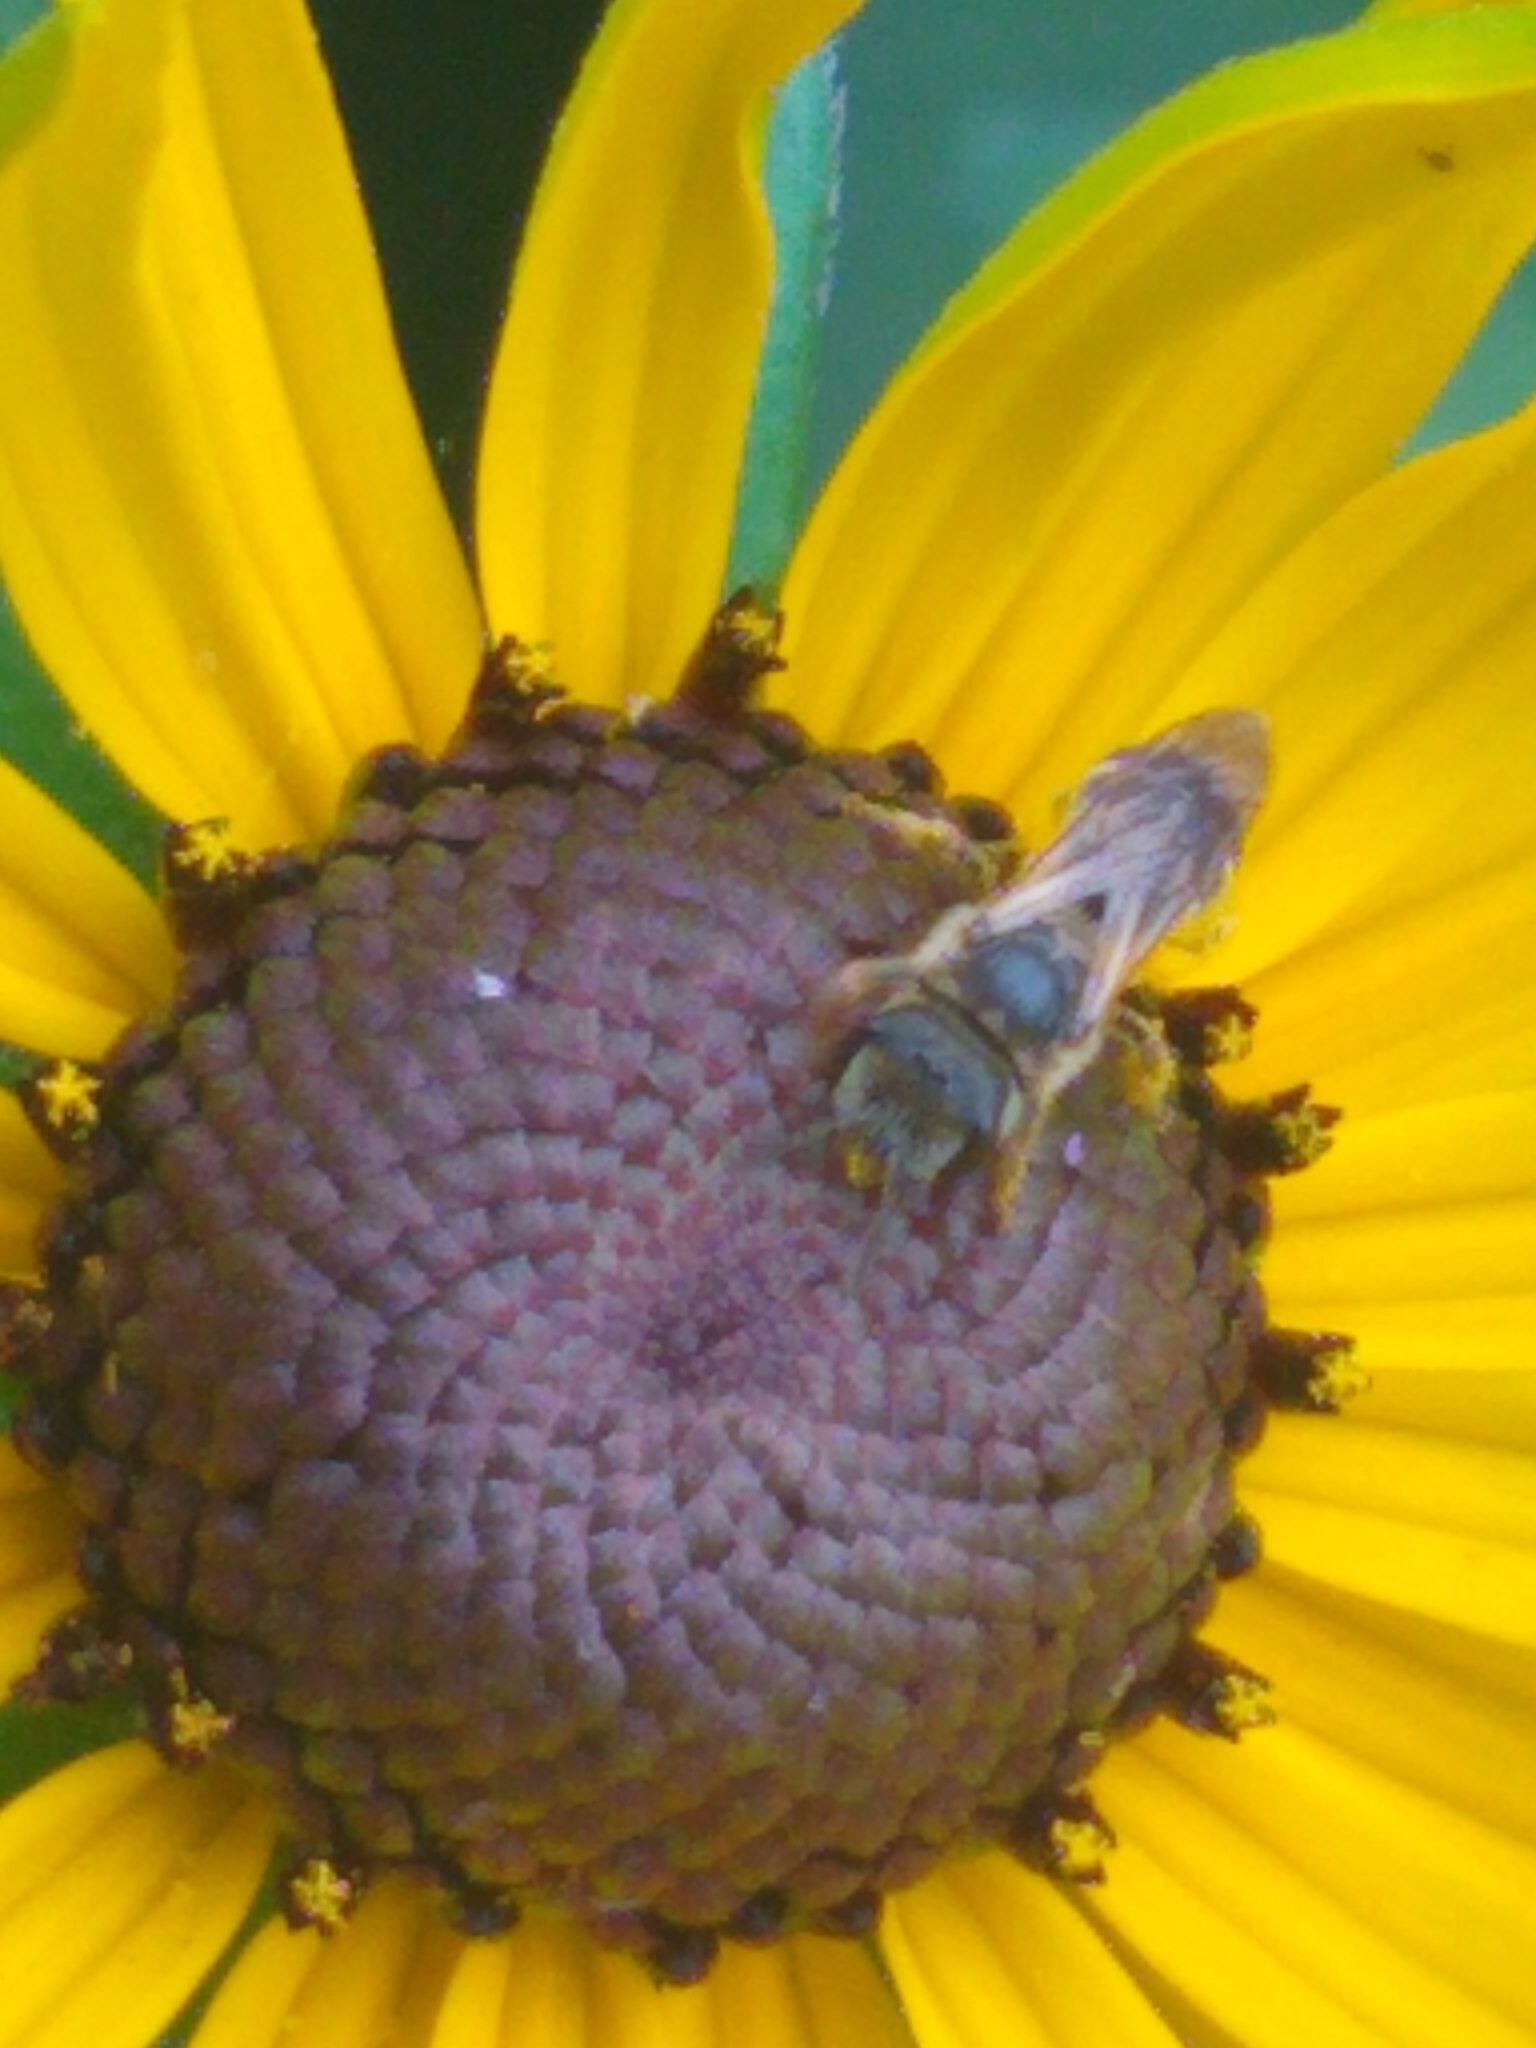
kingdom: Animalia
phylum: Arthropoda
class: Insecta
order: Hymenoptera
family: Halictidae
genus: Halictus
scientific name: Halictus ligatus
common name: Ligated furrow bee
